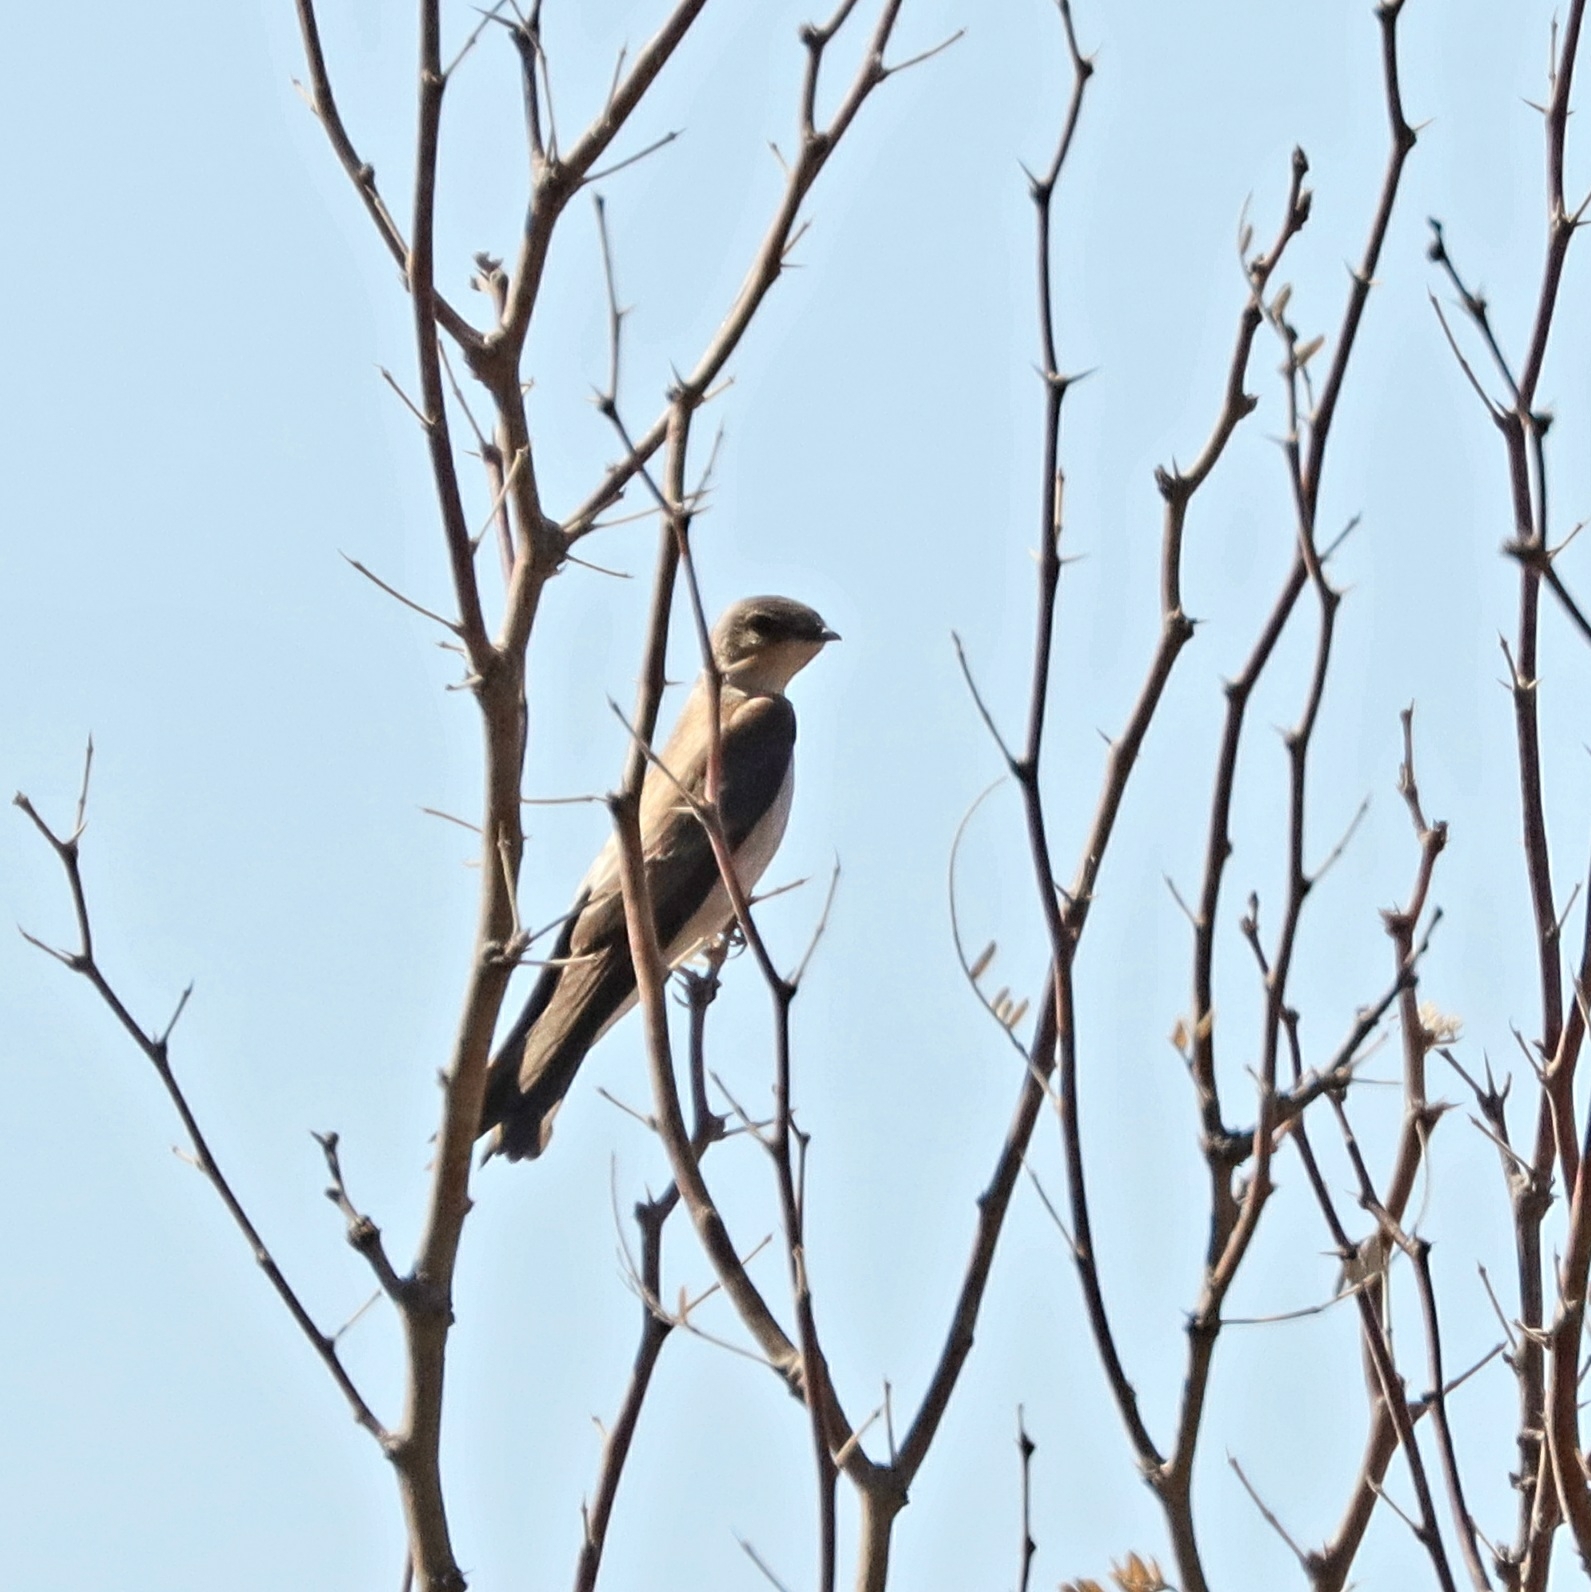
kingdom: Animalia
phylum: Chordata
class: Aves
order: Passeriformes
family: Hirundinidae
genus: Stelgidopteryx
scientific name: Stelgidopteryx serripennis
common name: Northern rough-winged swallow
